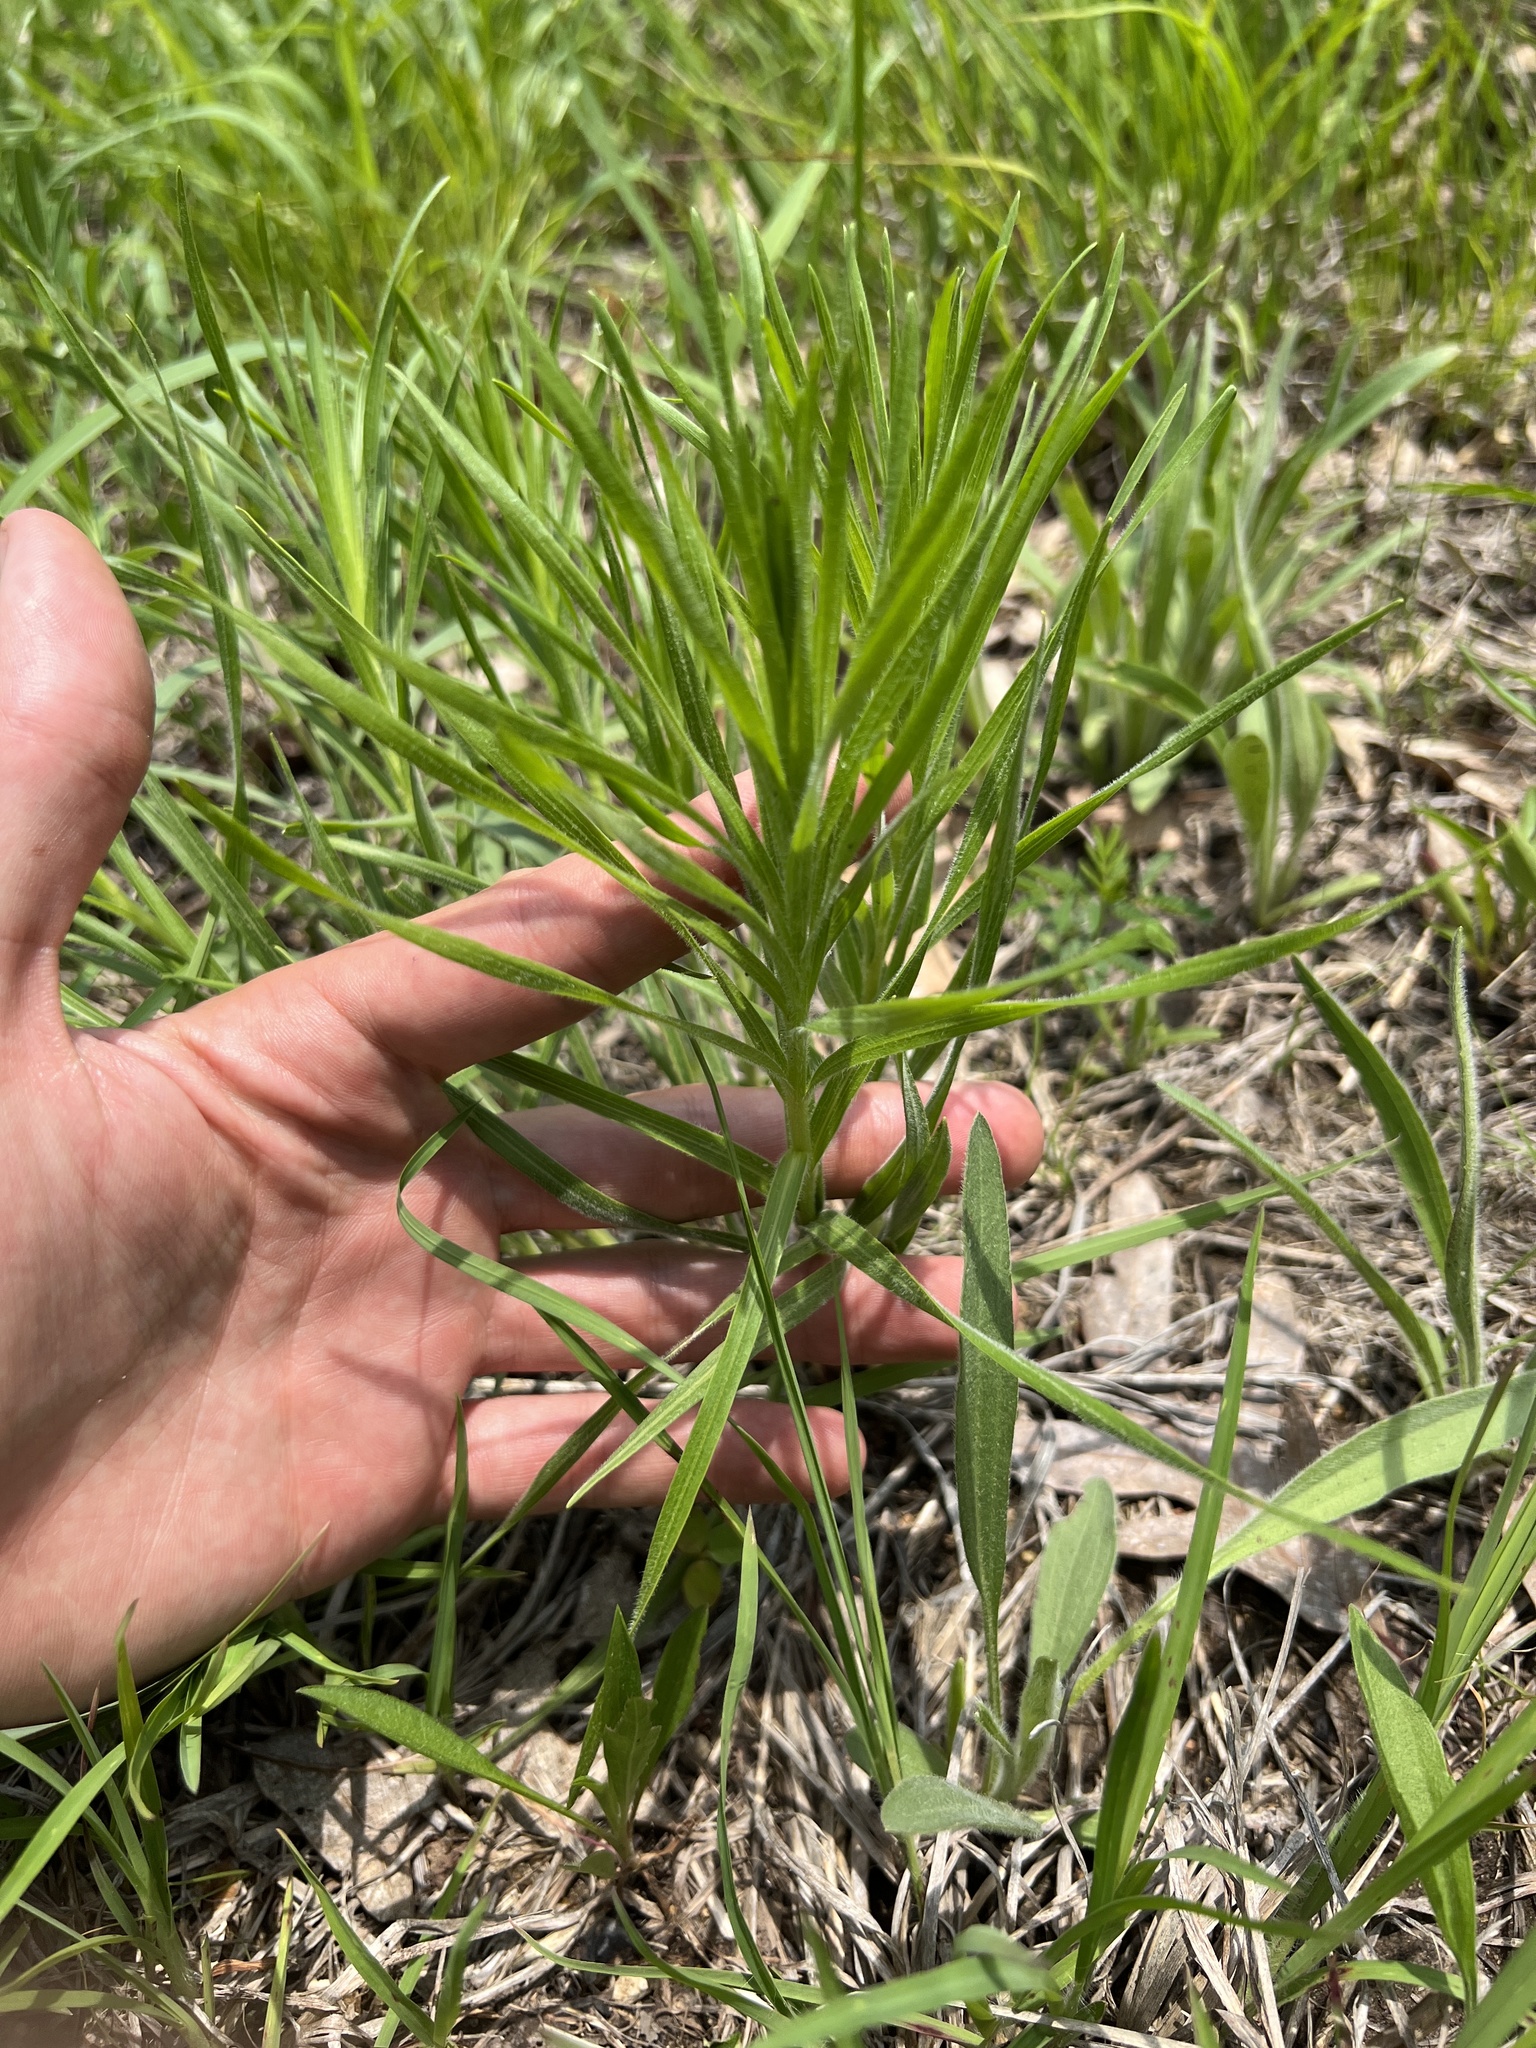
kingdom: Plantae
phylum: Tracheophyta
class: Magnoliopsida
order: Asterales
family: Asteraceae
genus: Liatris
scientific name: Liatris hirsuta
